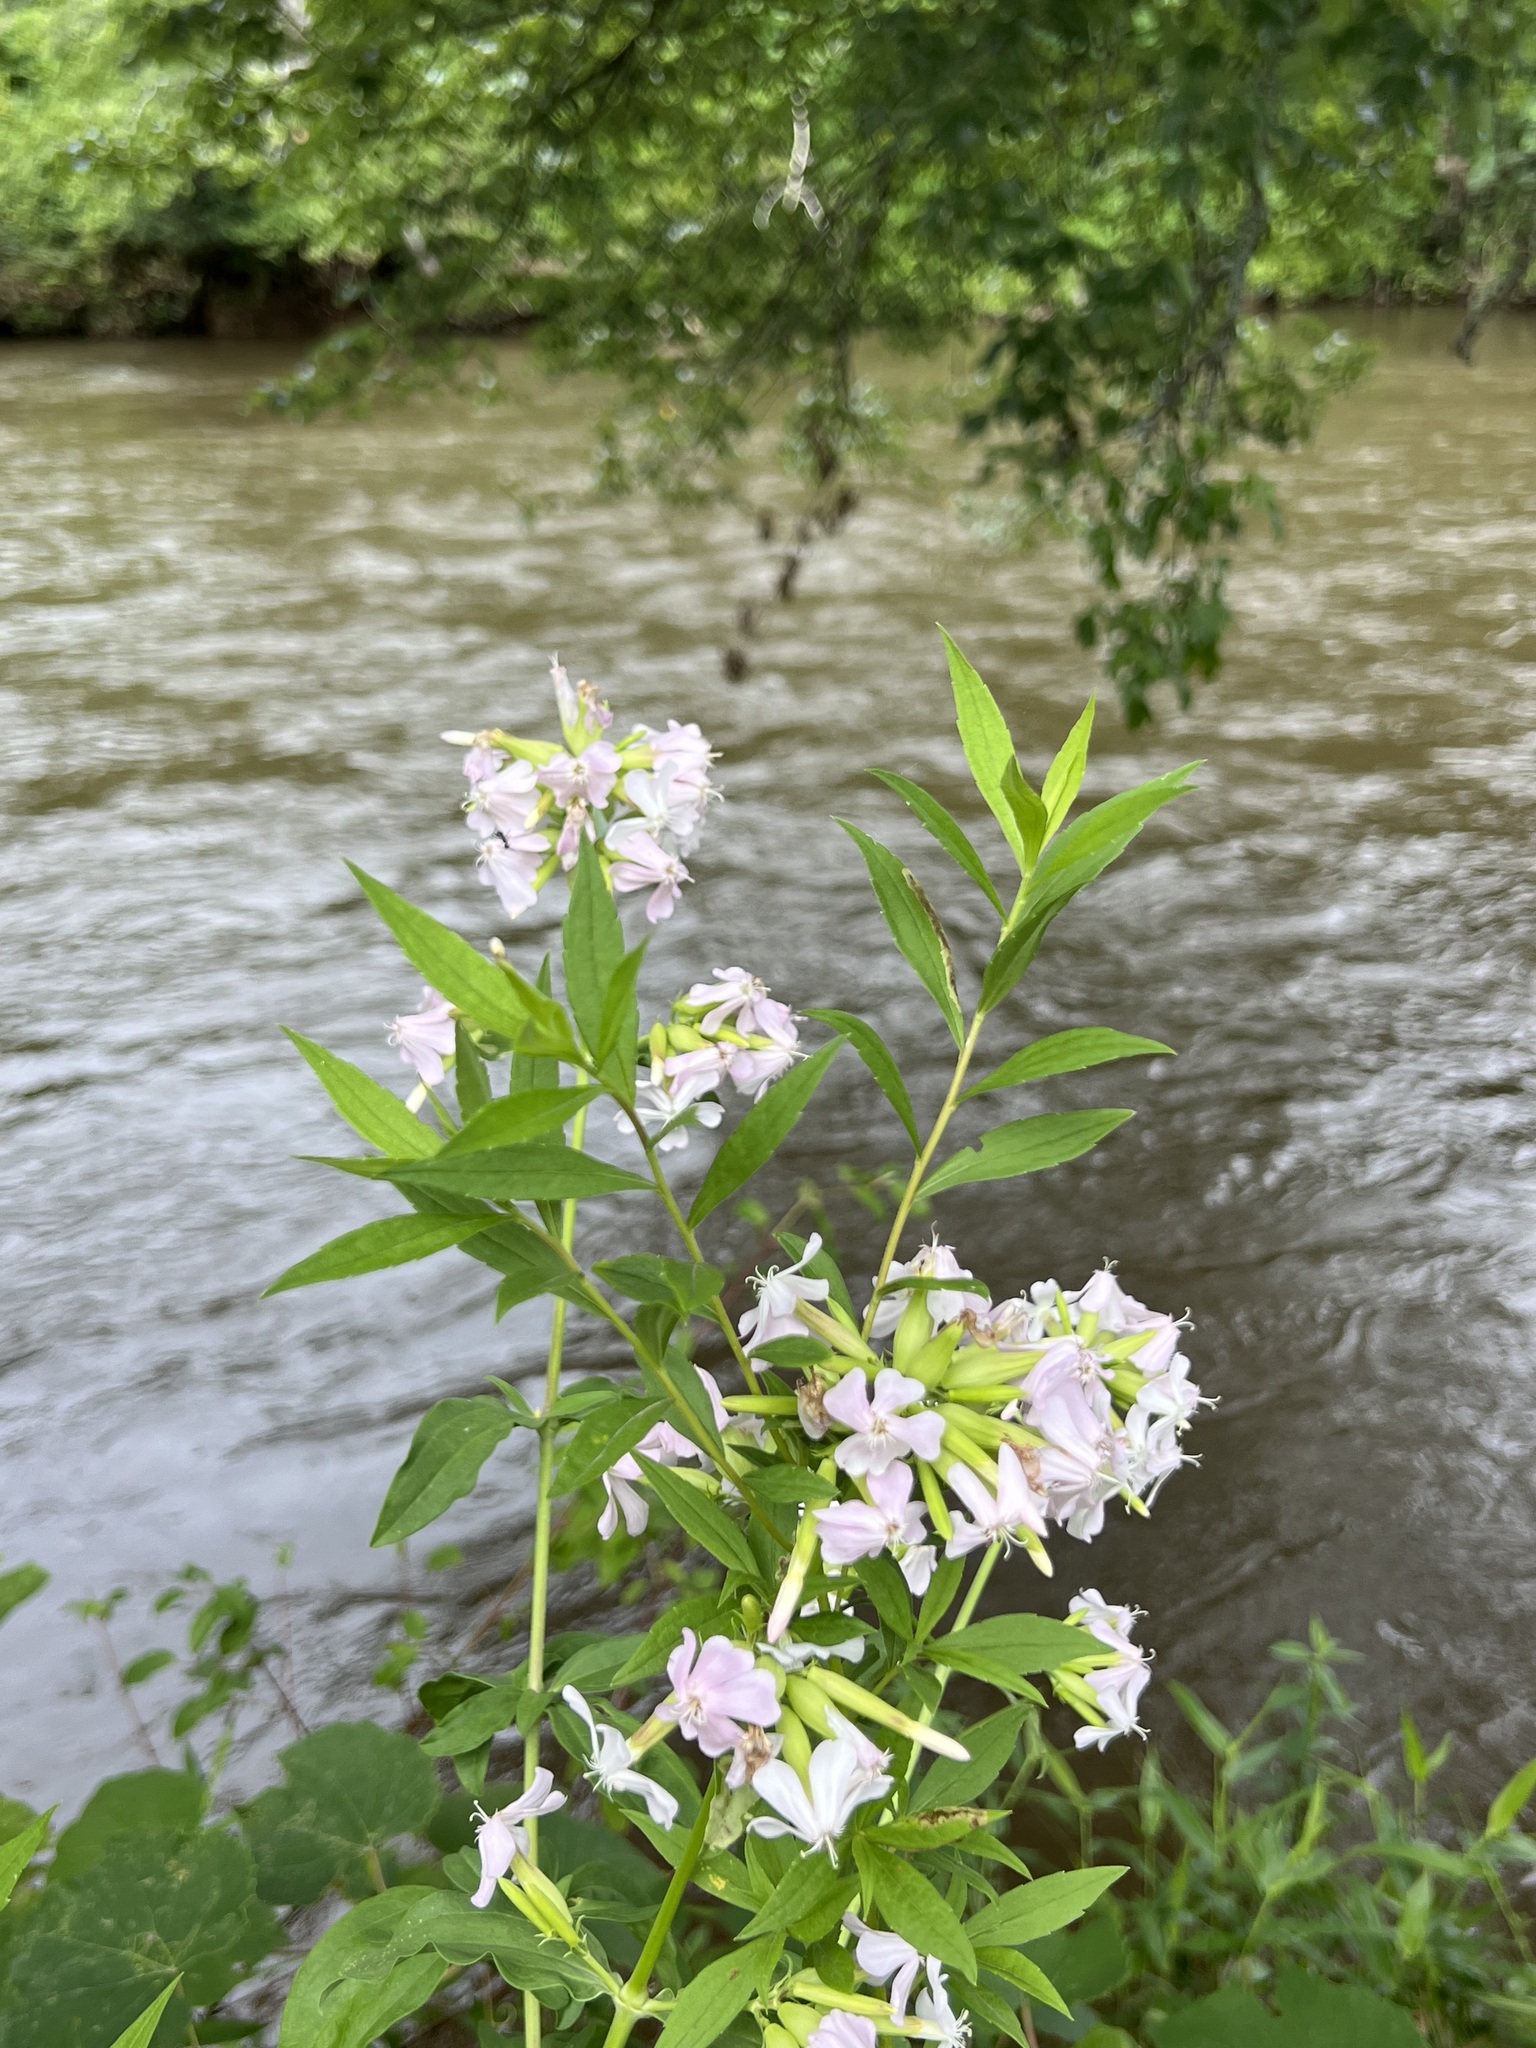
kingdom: Plantae
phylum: Tracheophyta
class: Magnoliopsida
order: Caryophyllales
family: Caryophyllaceae
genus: Saponaria
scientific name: Saponaria officinalis
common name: Soapwort
